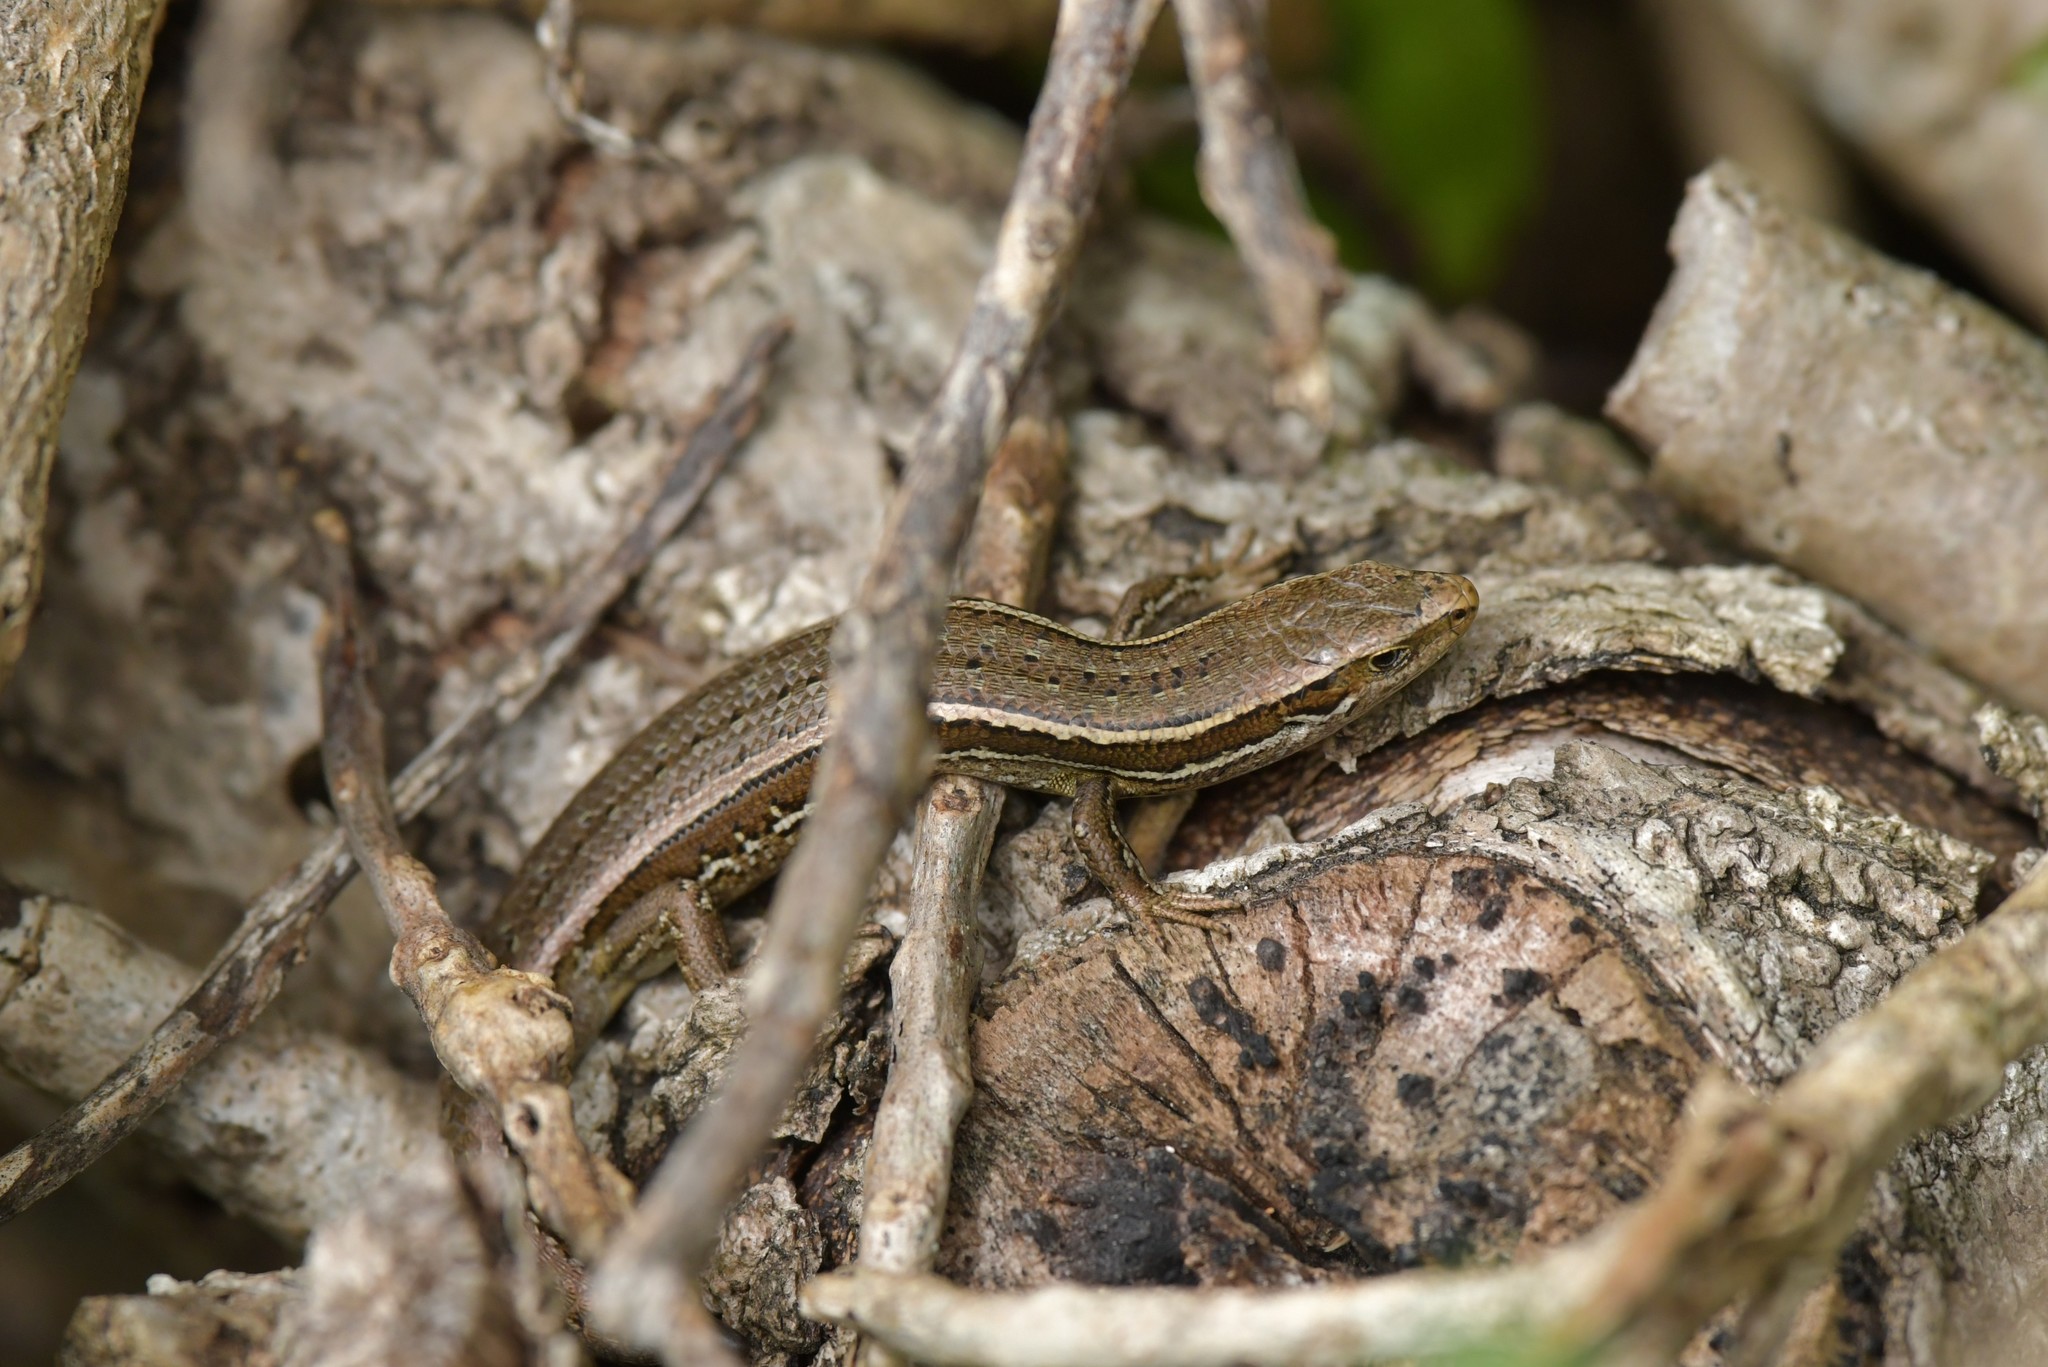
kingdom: Animalia
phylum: Chordata
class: Squamata
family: Scincidae
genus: Oligosoma
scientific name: Oligosoma polychroma
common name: Common new zealand skink
